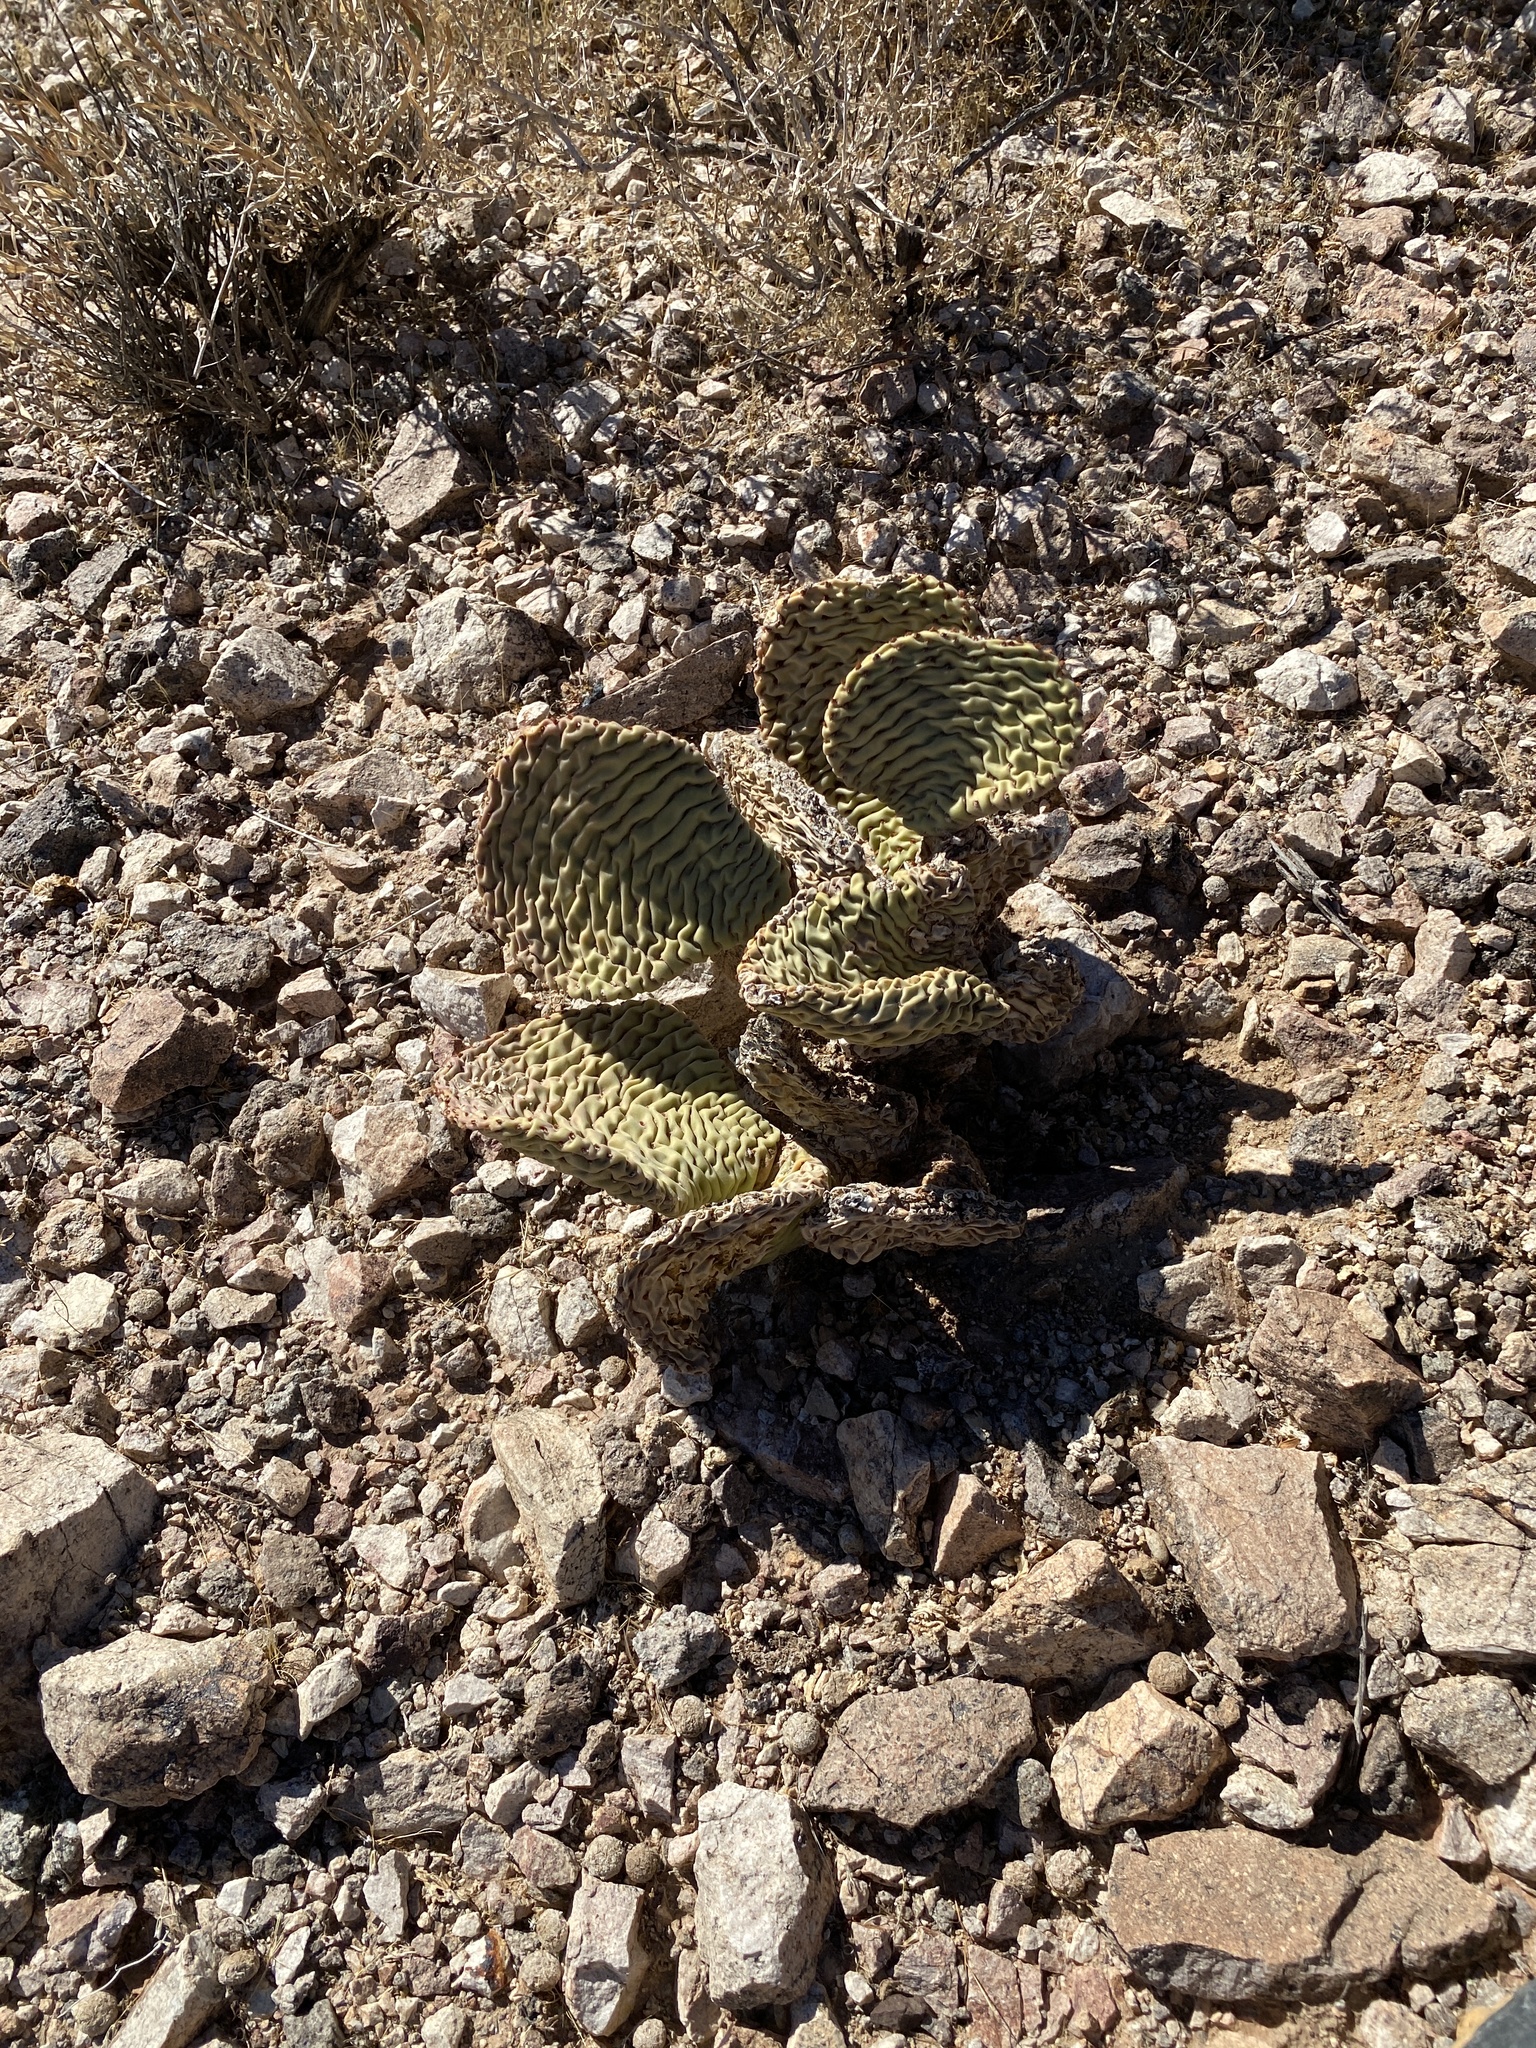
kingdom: Plantae
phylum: Tracheophyta
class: Magnoliopsida
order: Caryophyllales
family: Cactaceae
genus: Opuntia
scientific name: Opuntia basilaris
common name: Beavertail prickly-pear
